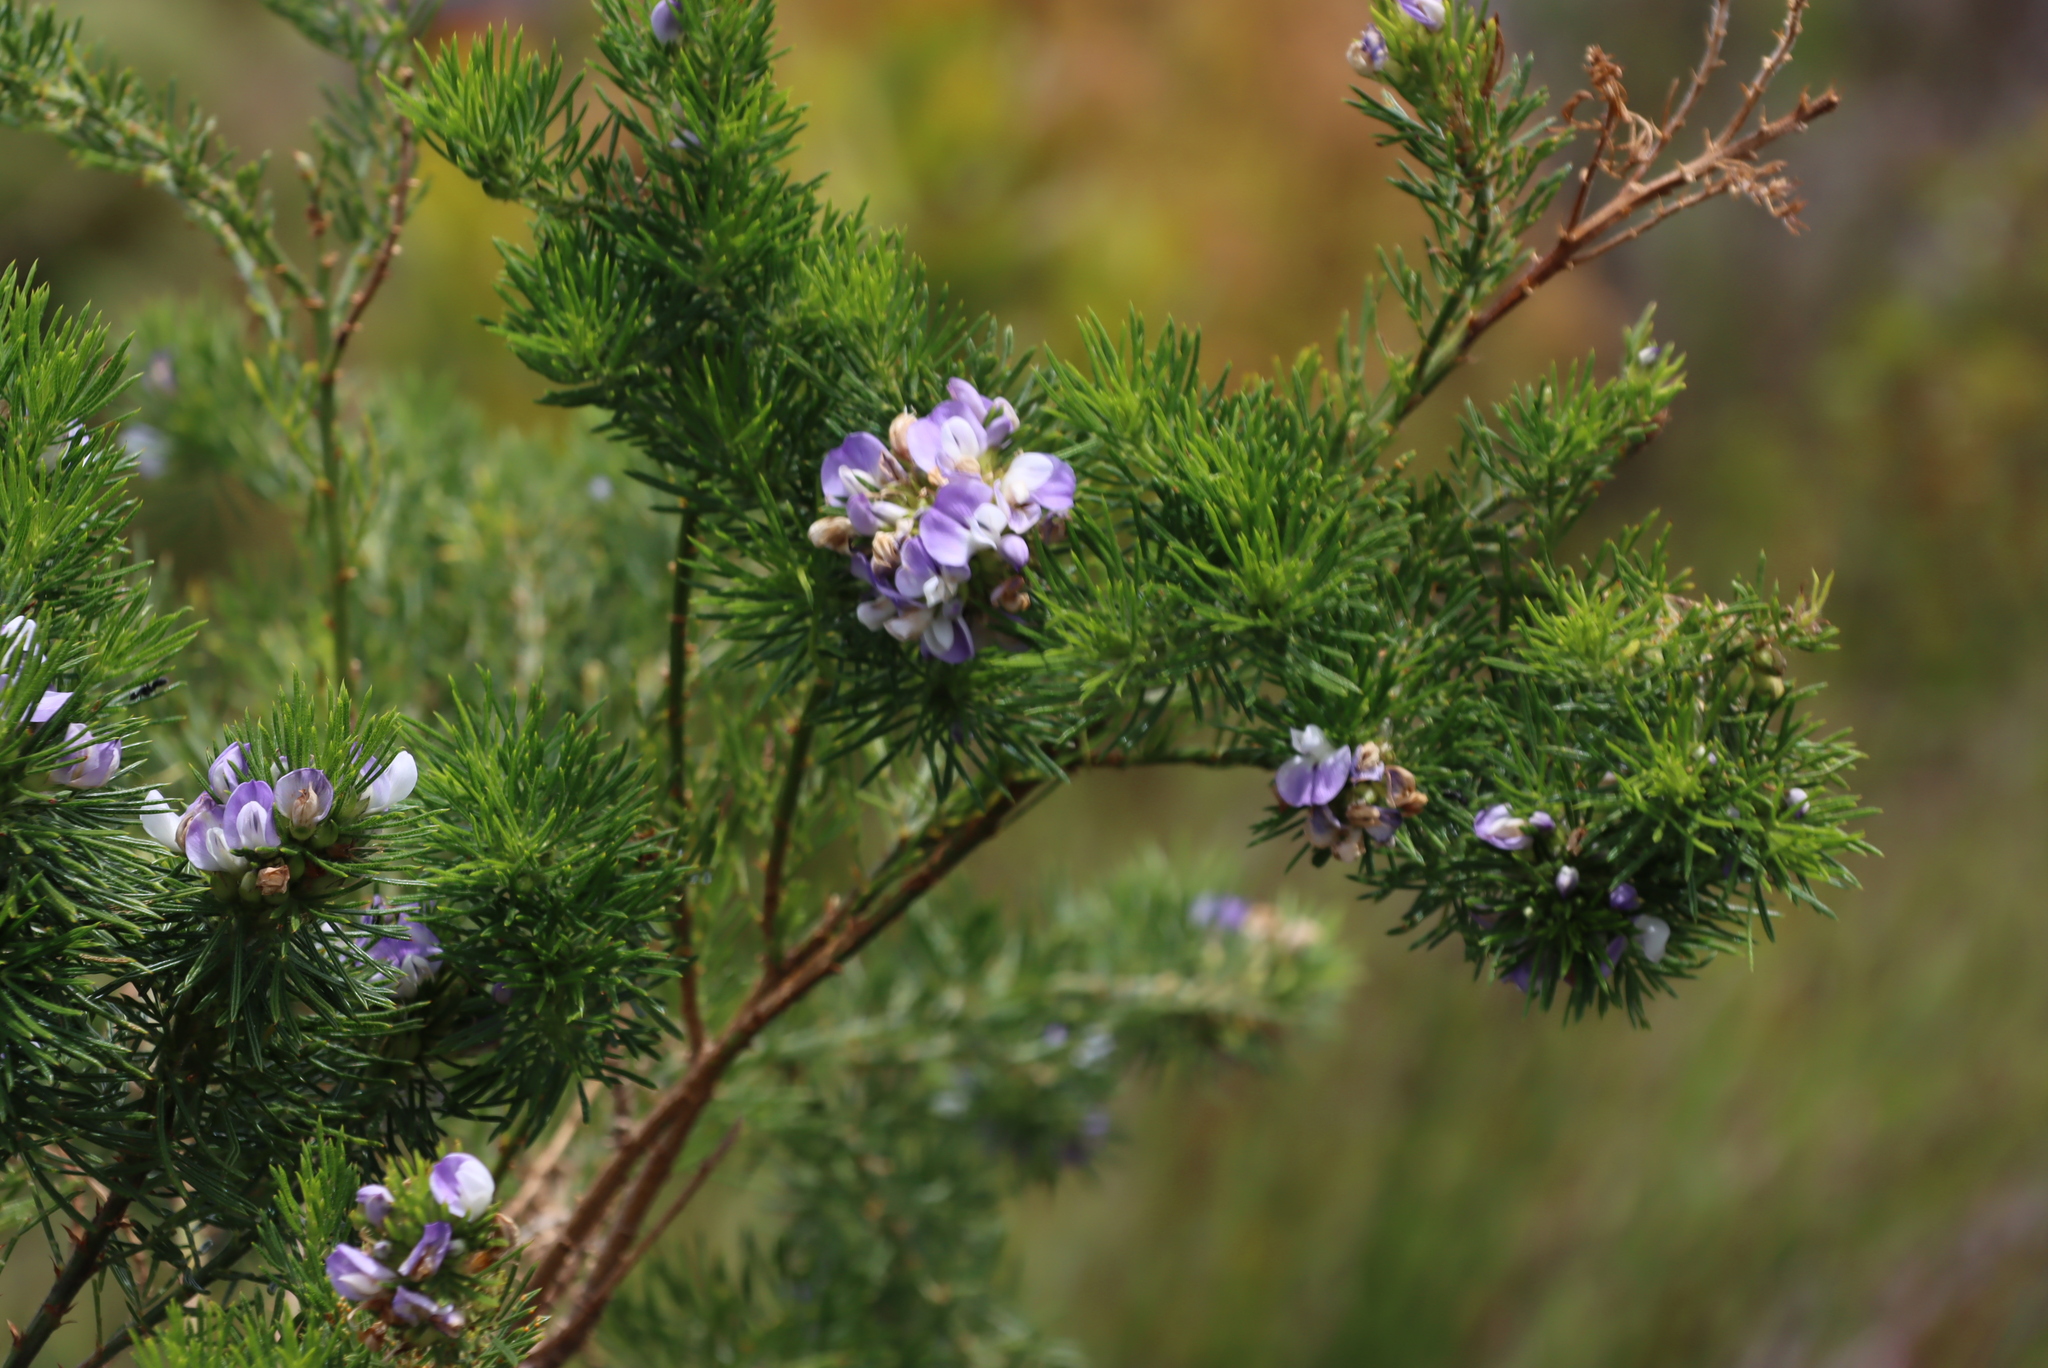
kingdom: Plantae
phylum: Tracheophyta
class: Magnoliopsida
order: Fabales
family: Fabaceae
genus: Psoralea
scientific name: Psoralea pinnata
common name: African scurfpea
